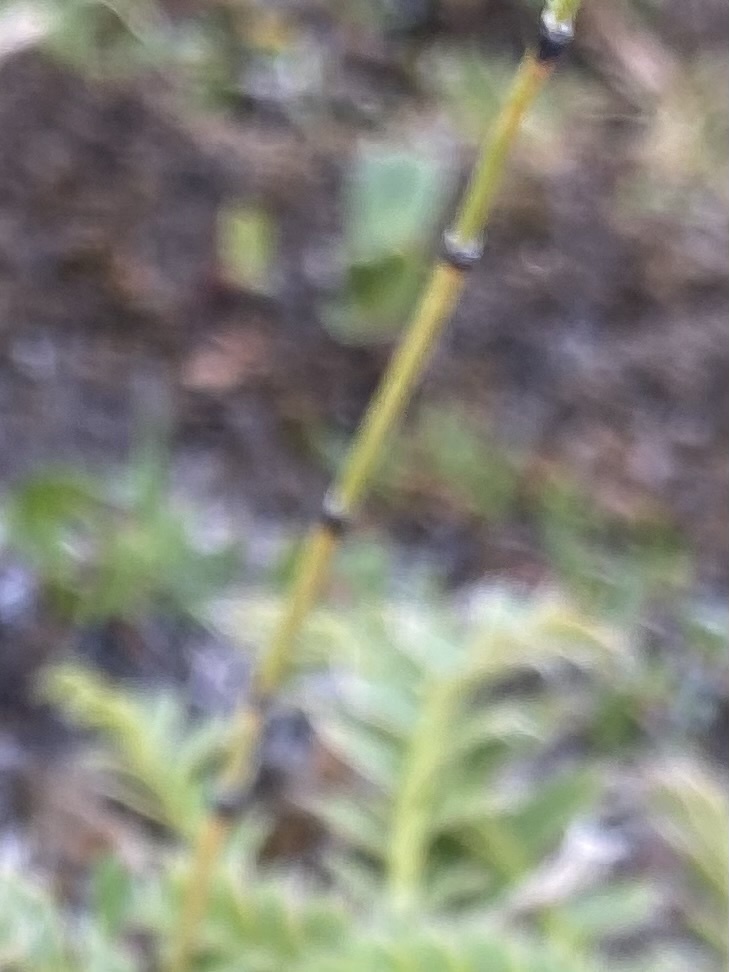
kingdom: Plantae
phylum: Tracheophyta
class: Polypodiopsida
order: Equisetales
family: Equisetaceae
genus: Equisetum
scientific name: Equisetum variegatum
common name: Variegated horsetail
